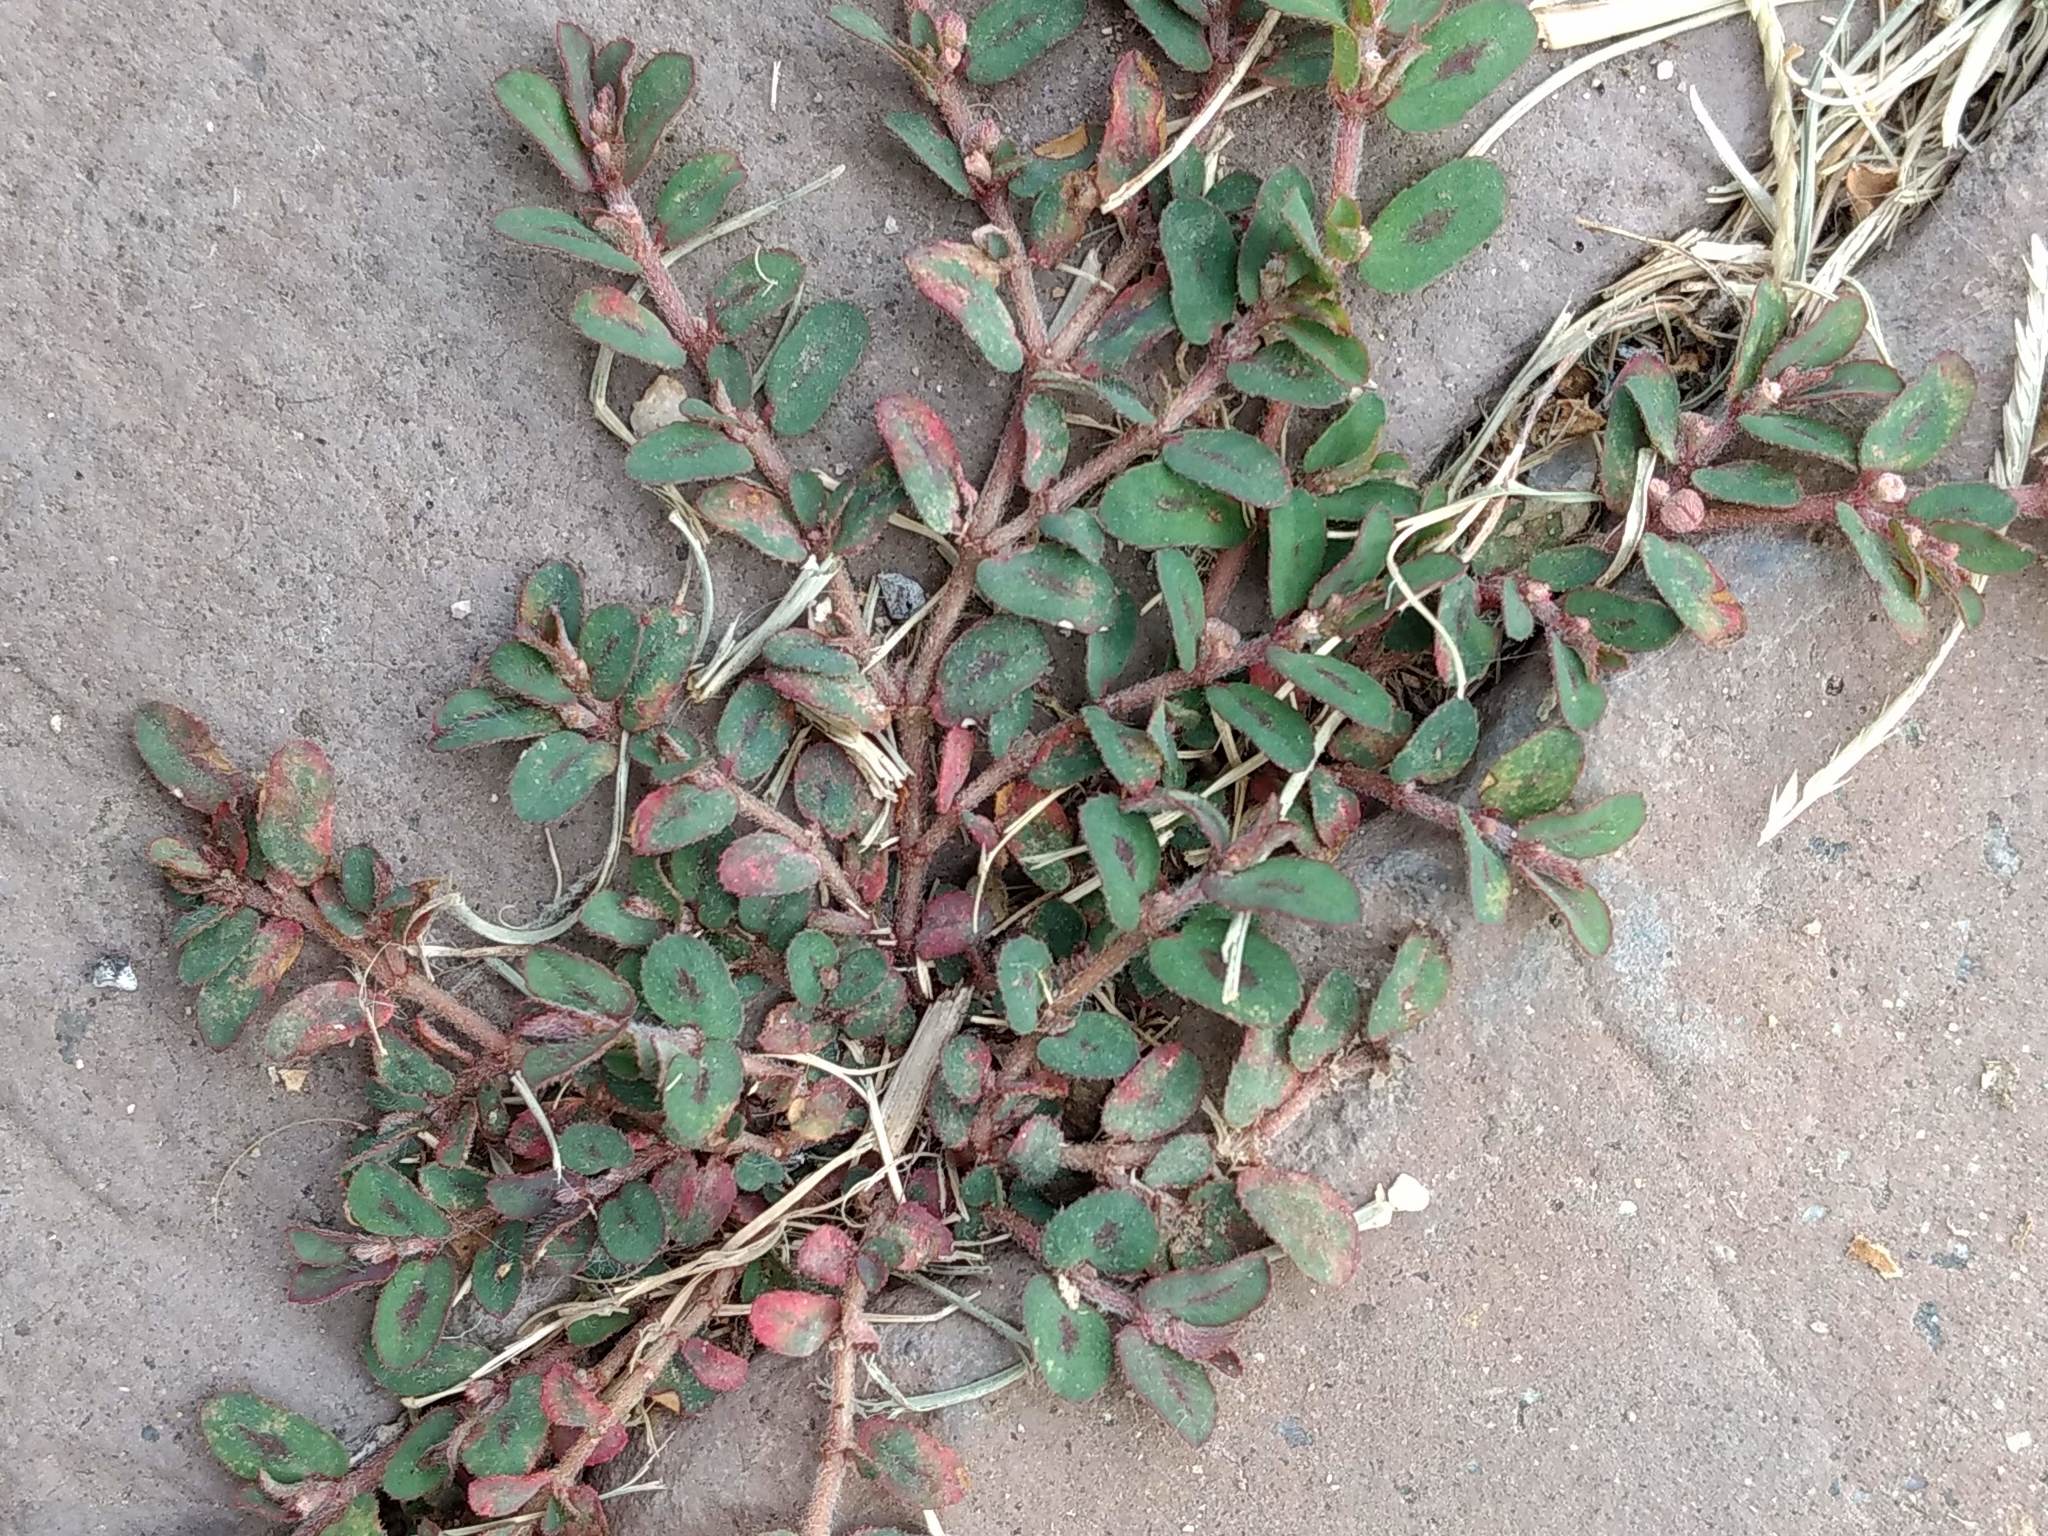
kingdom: Plantae
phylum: Tracheophyta
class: Magnoliopsida
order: Malpighiales
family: Euphorbiaceae
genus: Euphorbia
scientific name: Euphorbia maculata
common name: Spotted spurge
